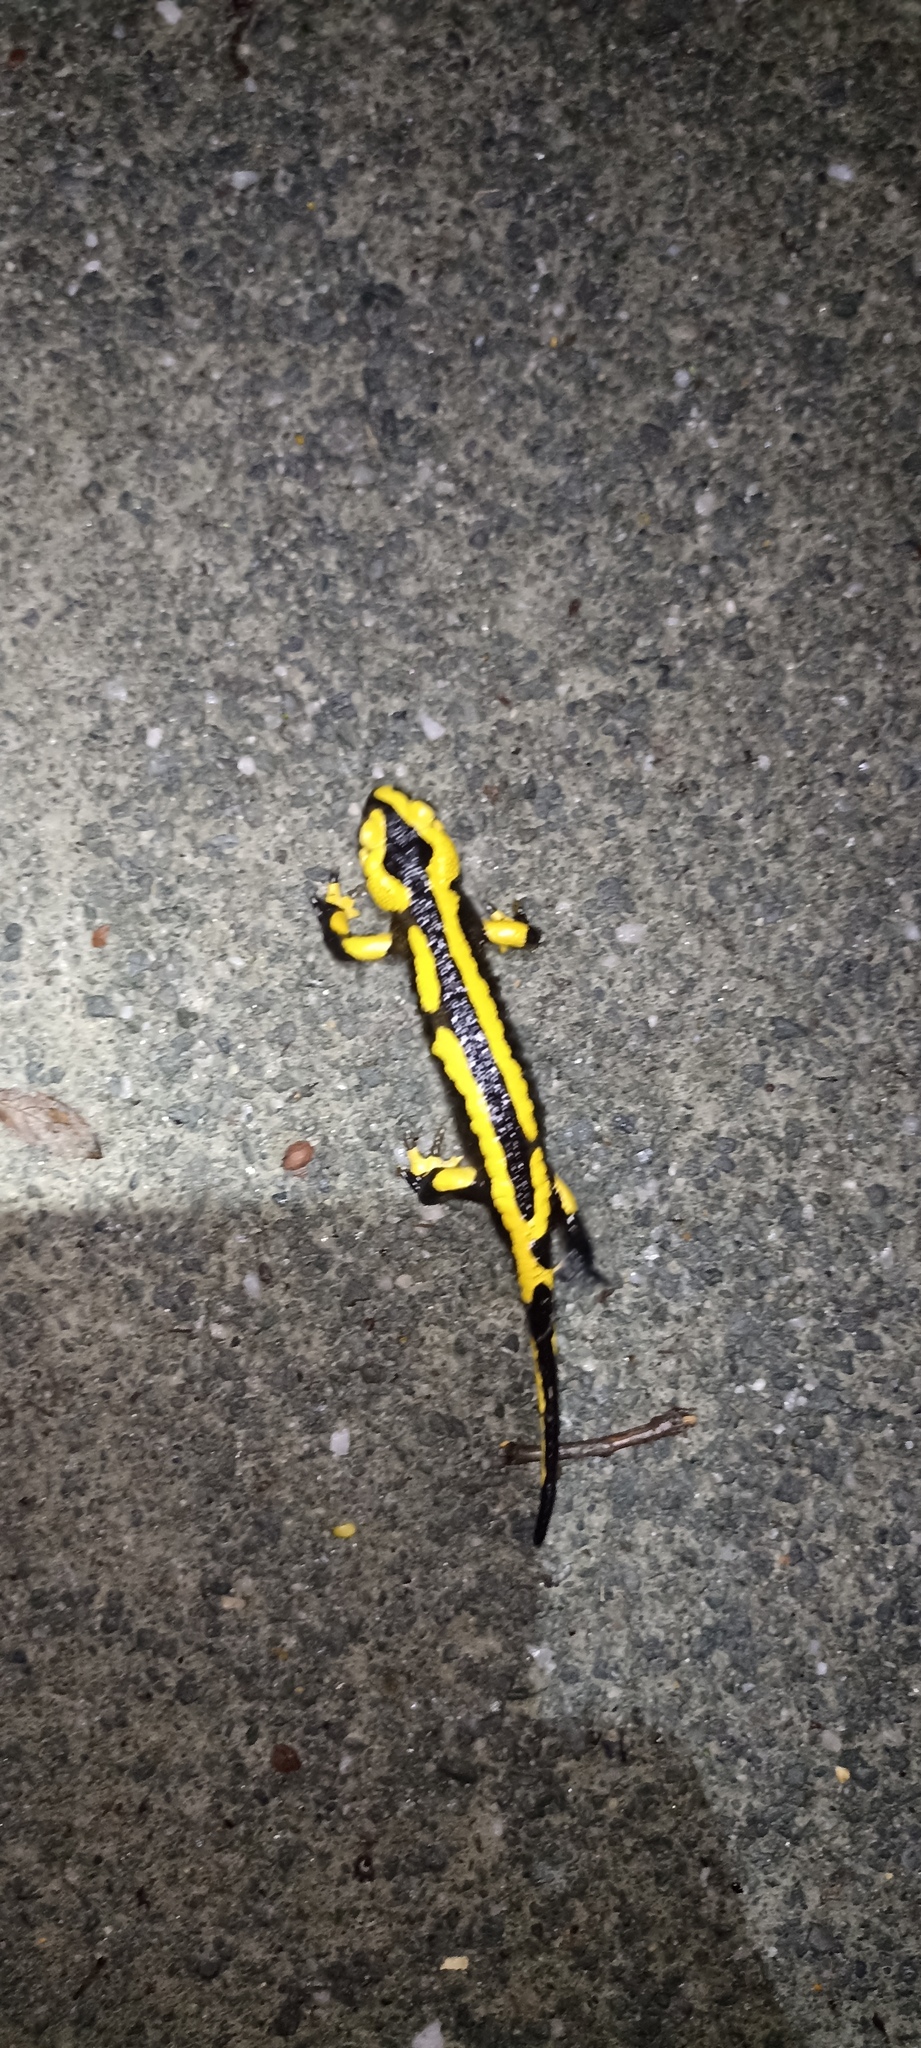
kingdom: Animalia
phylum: Chordata
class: Amphibia
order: Caudata
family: Salamandridae
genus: Salamandra
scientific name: Salamandra salamandra
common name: Fire salamander
